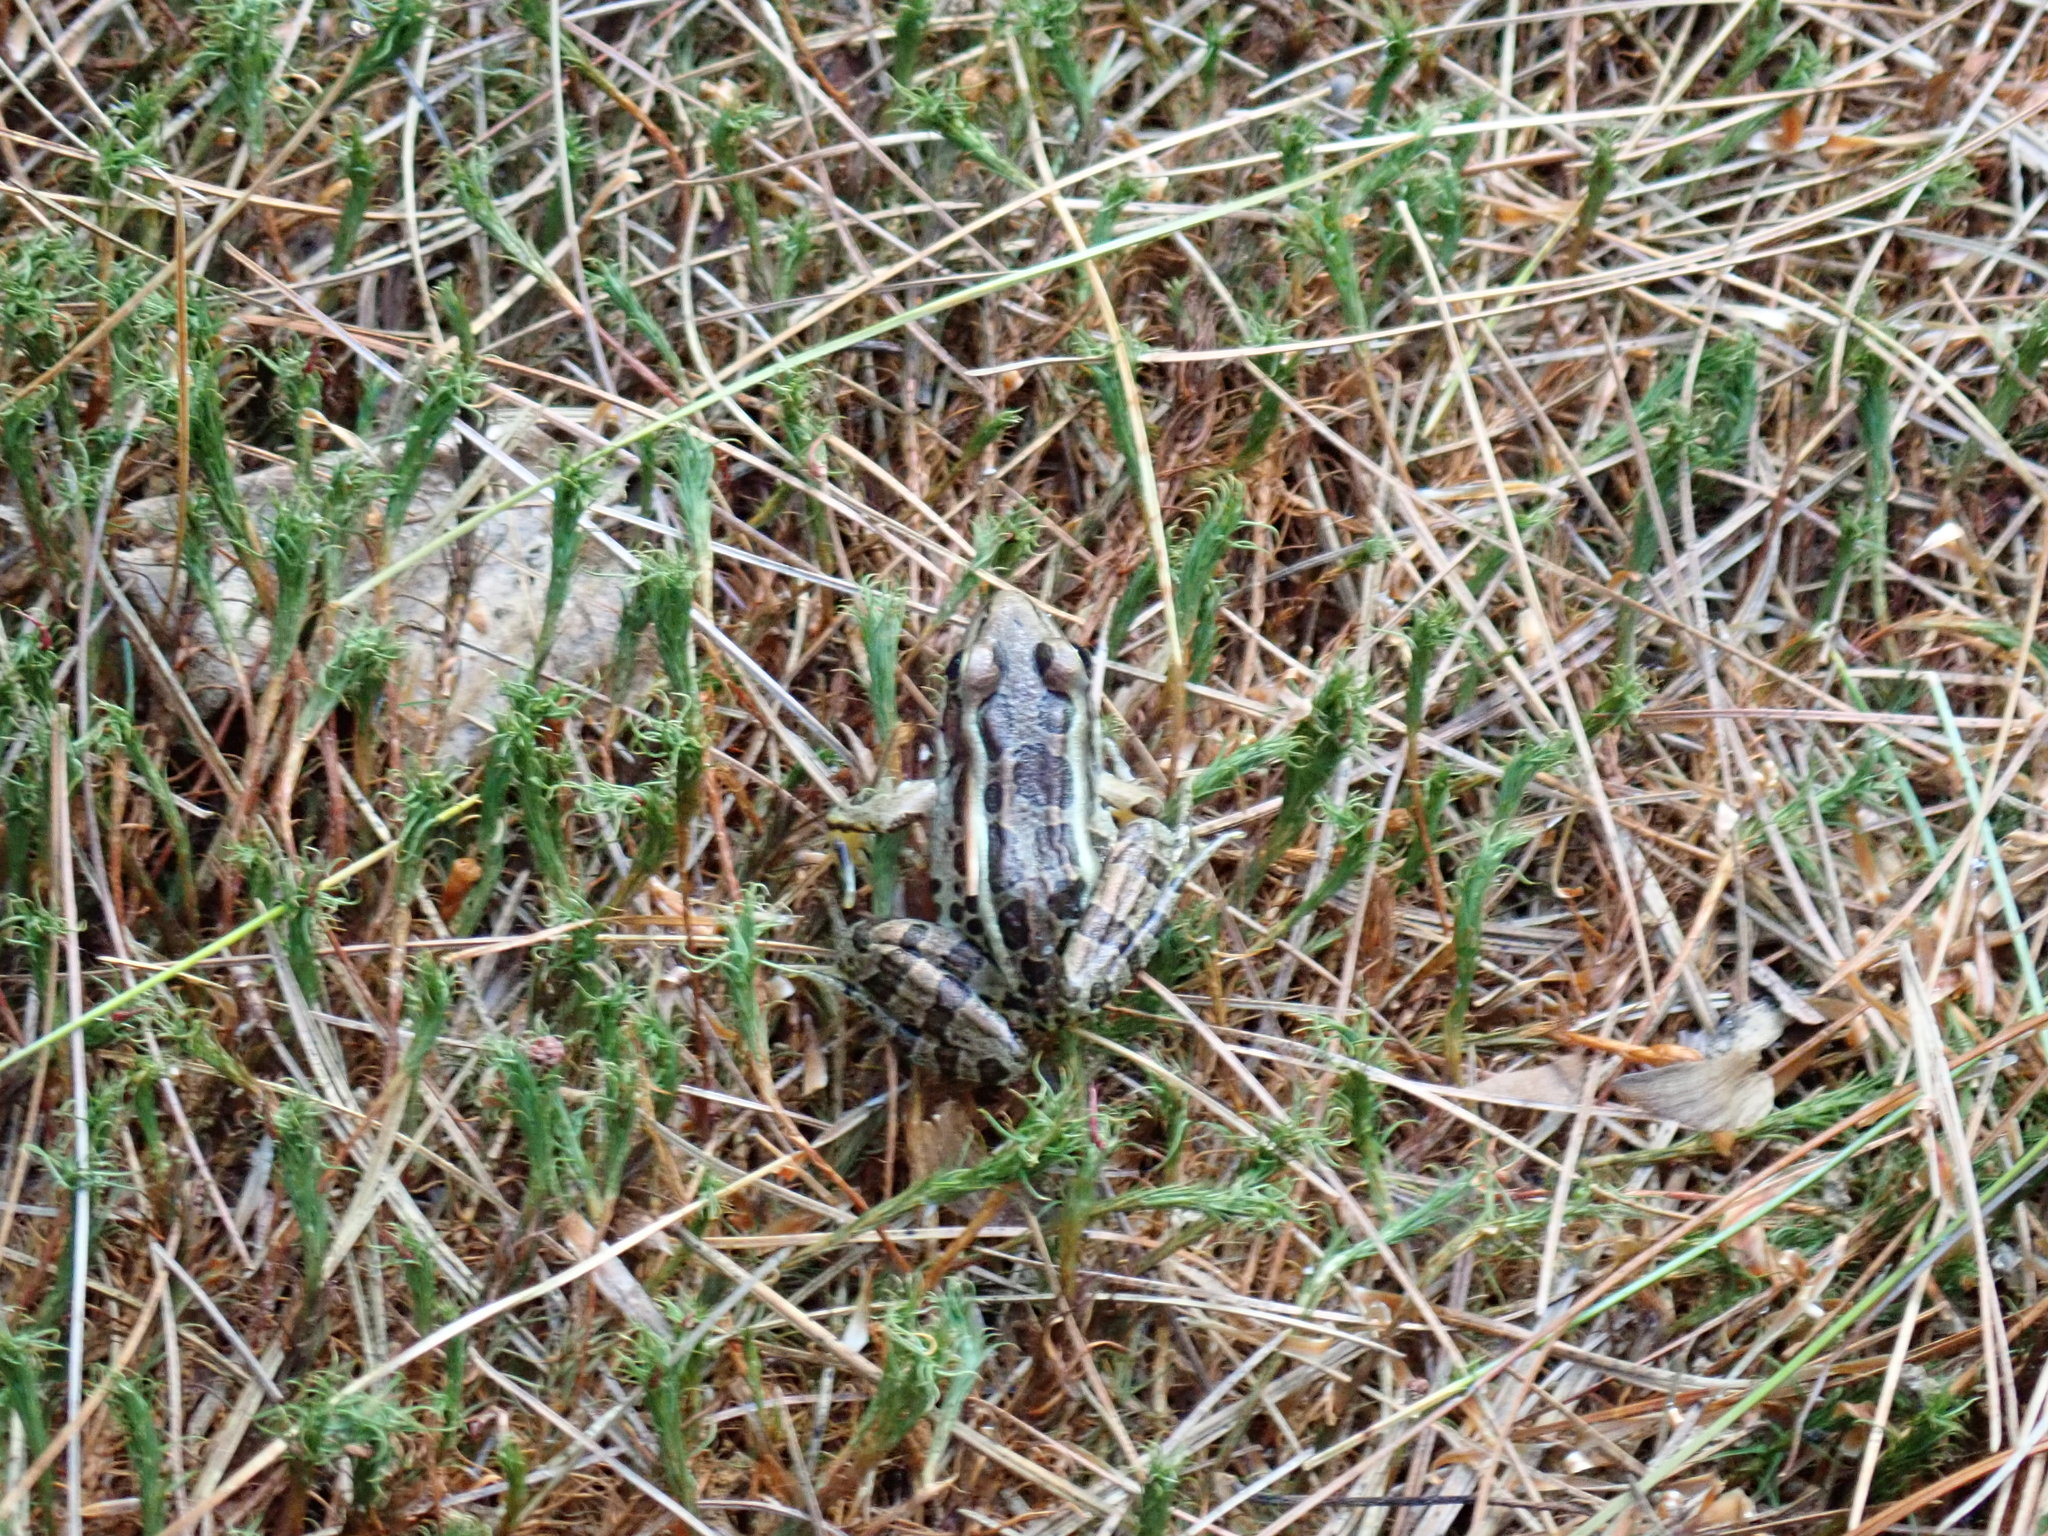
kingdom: Animalia
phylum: Chordata
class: Amphibia
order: Anura
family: Ranidae
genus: Lithobates
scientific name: Lithobates palustris
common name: Pickerel frog
